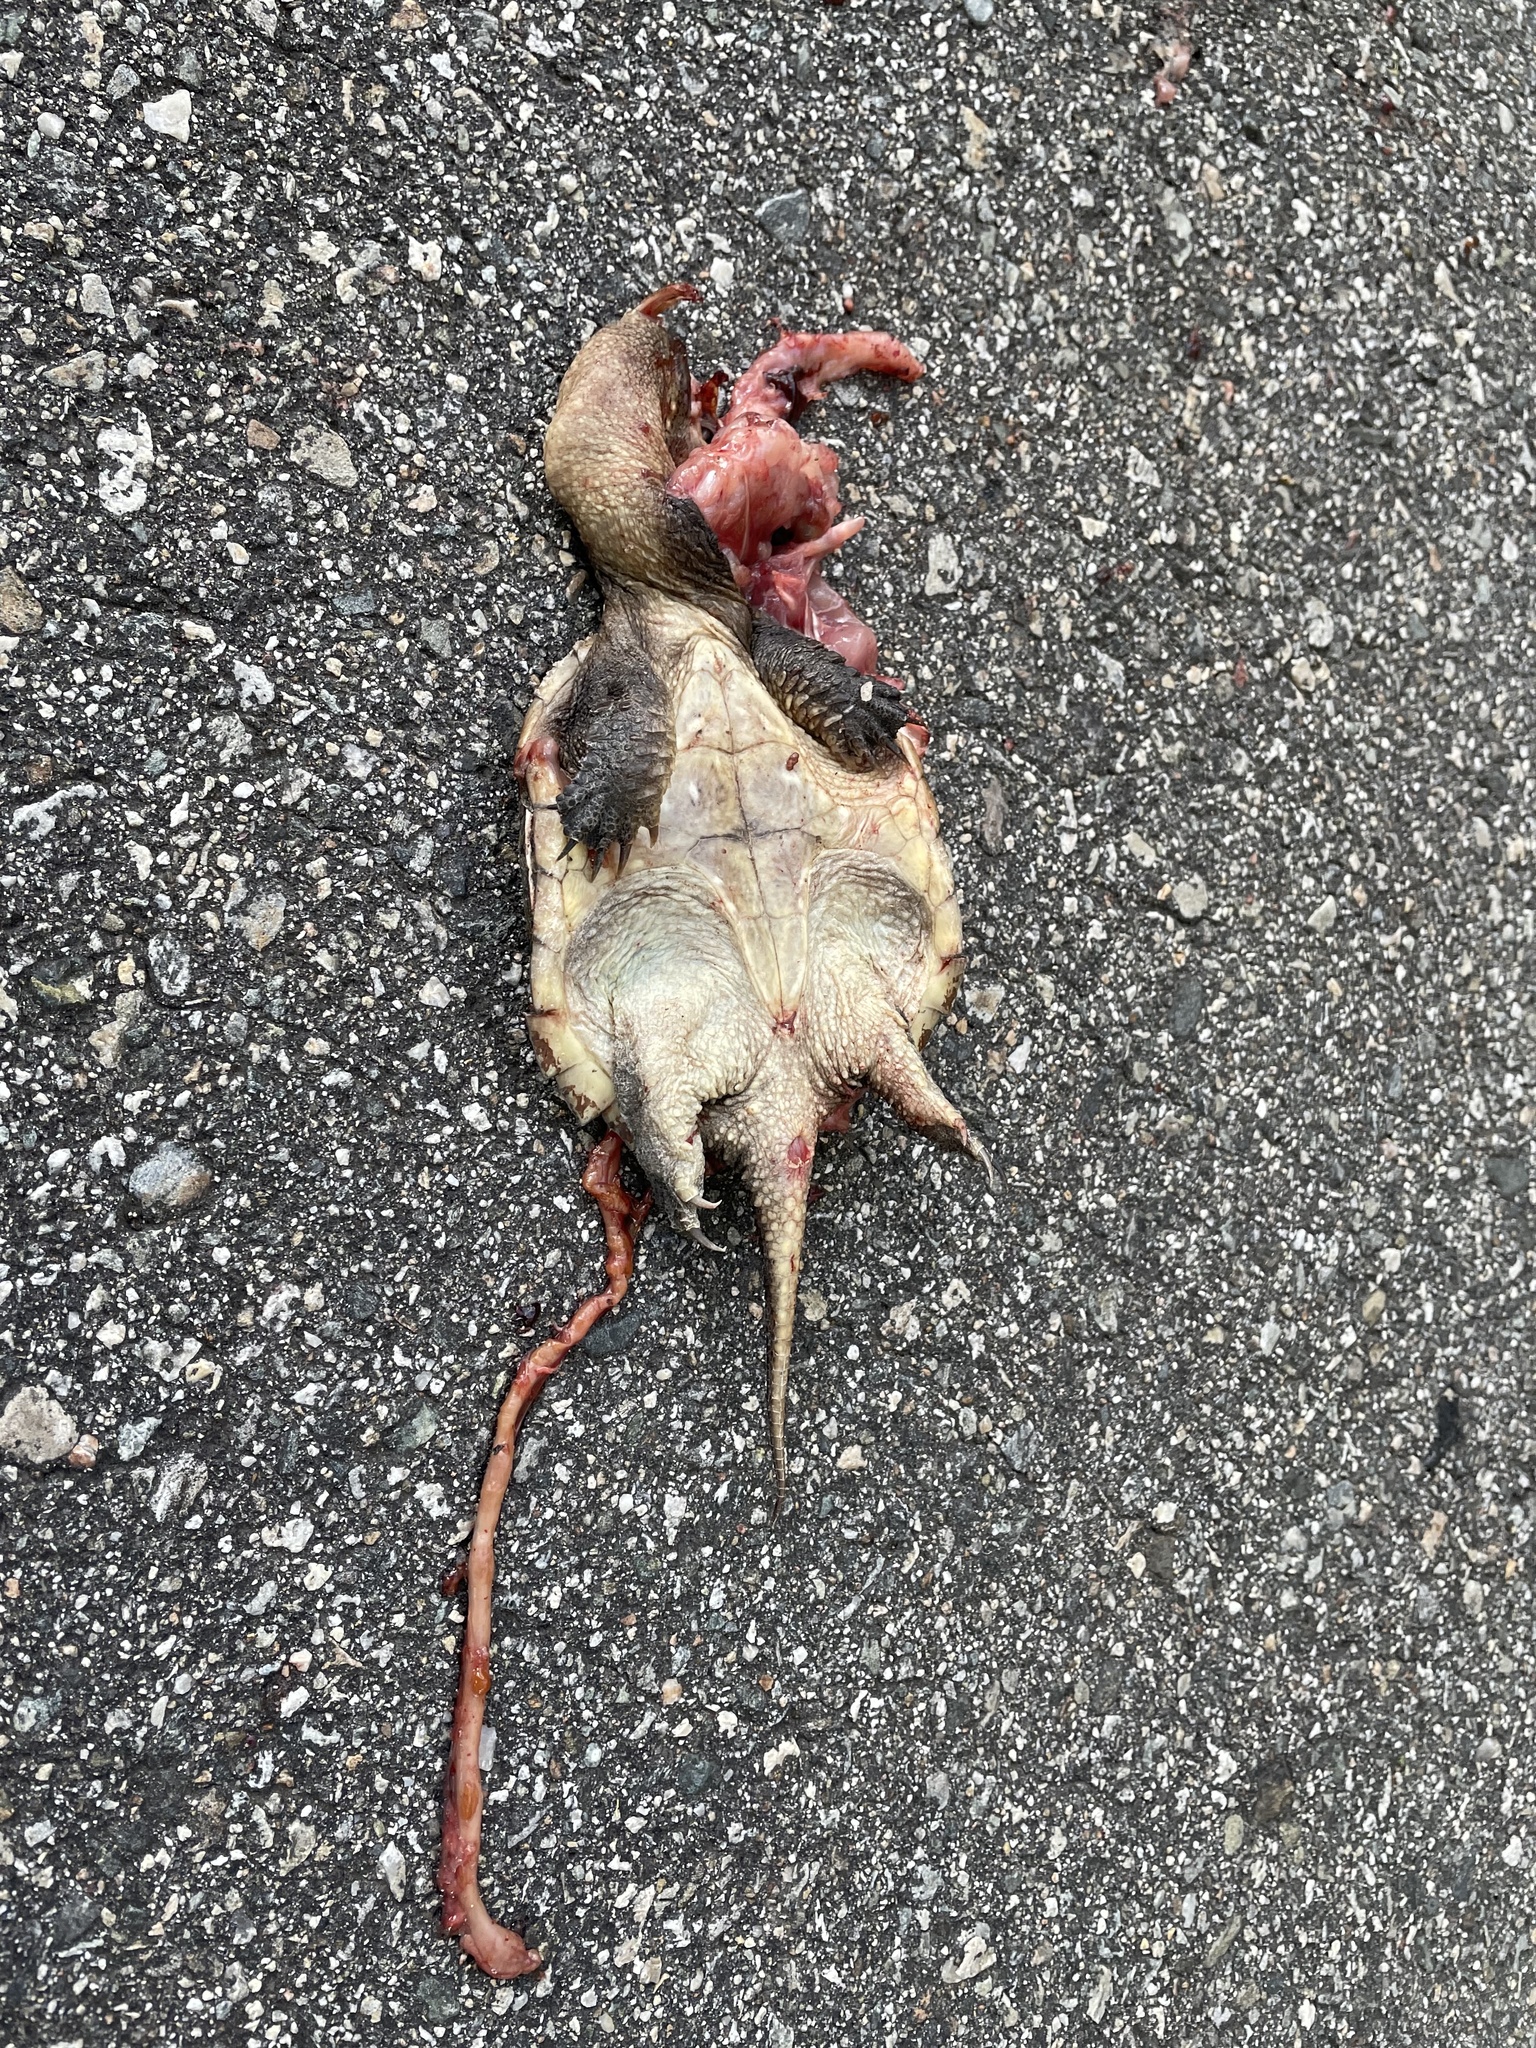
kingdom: Animalia
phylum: Chordata
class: Testudines
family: Chelydridae
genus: Chelydra
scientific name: Chelydra serpentina
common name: Common snapping turtle
